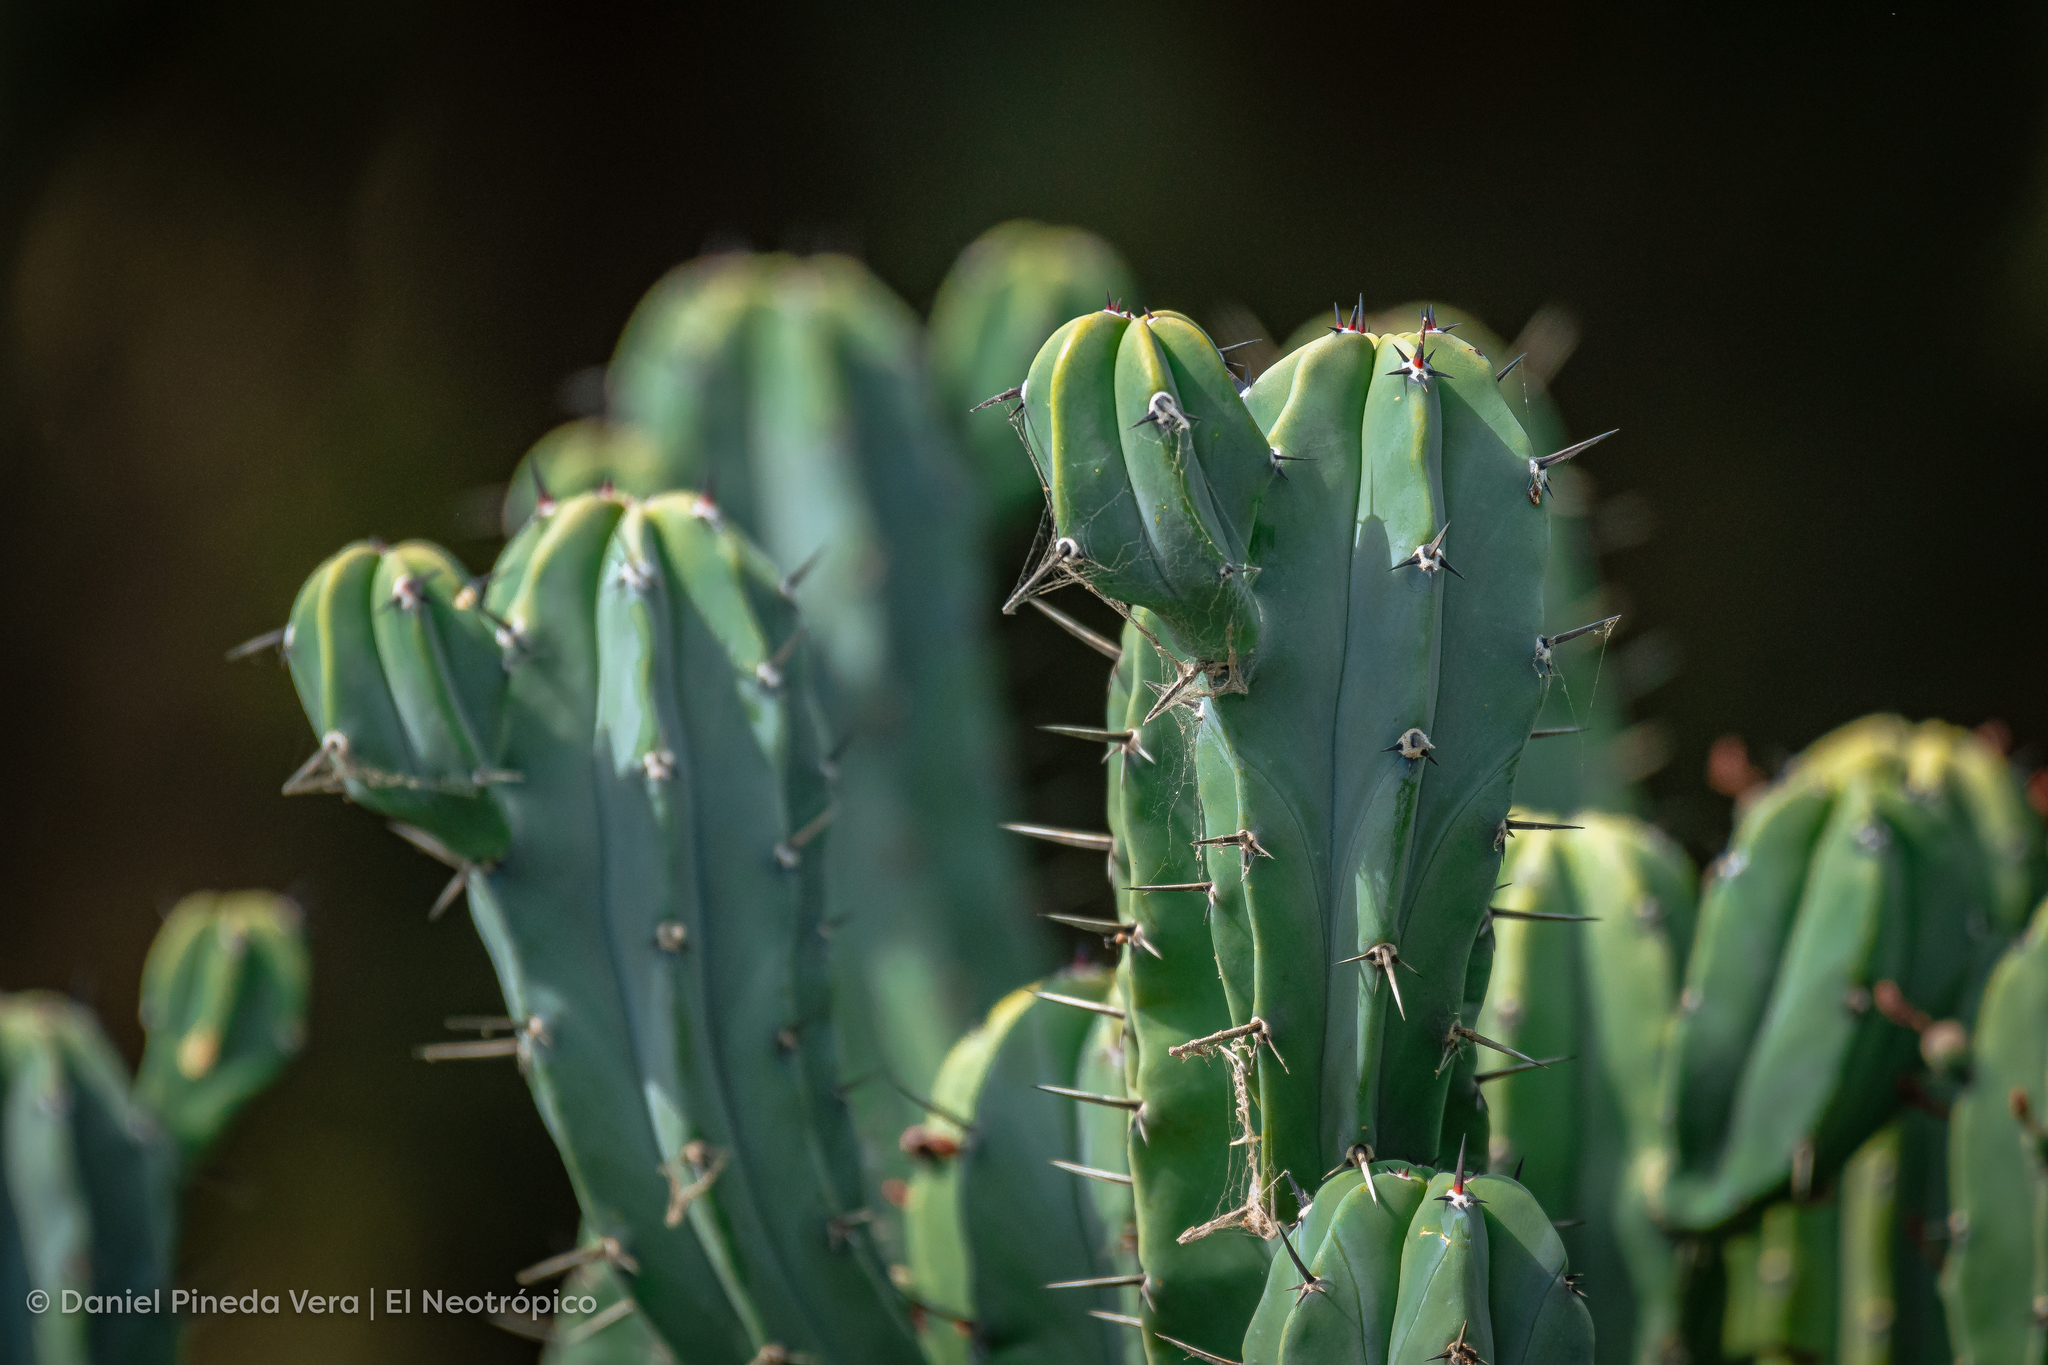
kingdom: Plantae
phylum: Tracheophyta
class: Magnoliopsida
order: Caryophyllales
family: Cactaceae
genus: Myrtillocactus
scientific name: Myrtillocactus geometrizans
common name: Bilberry cactus
